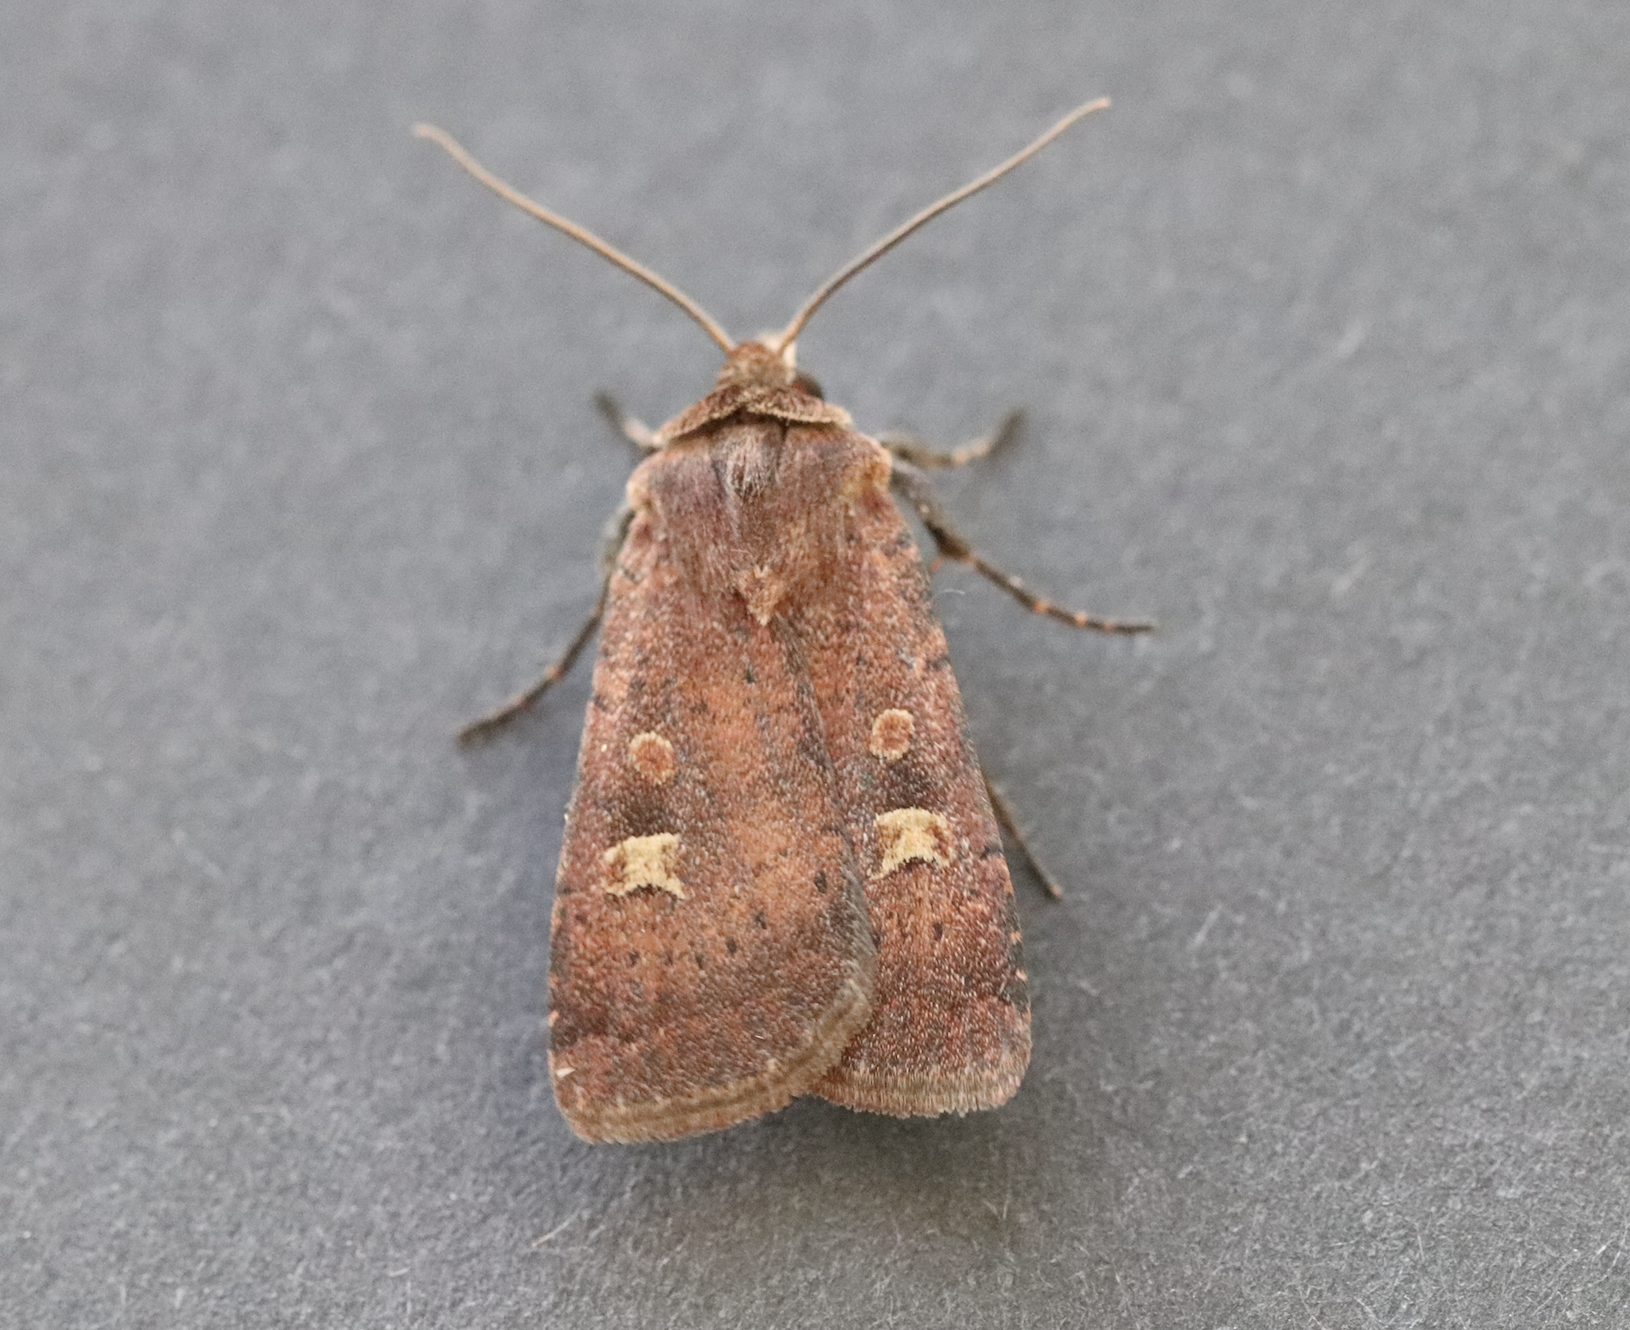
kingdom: Animalia
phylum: Arthropoda
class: Insecta
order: Lepidoptera
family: Noctuidae
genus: Xestia
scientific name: Xestia xanthographa
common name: Square-spot rustic
